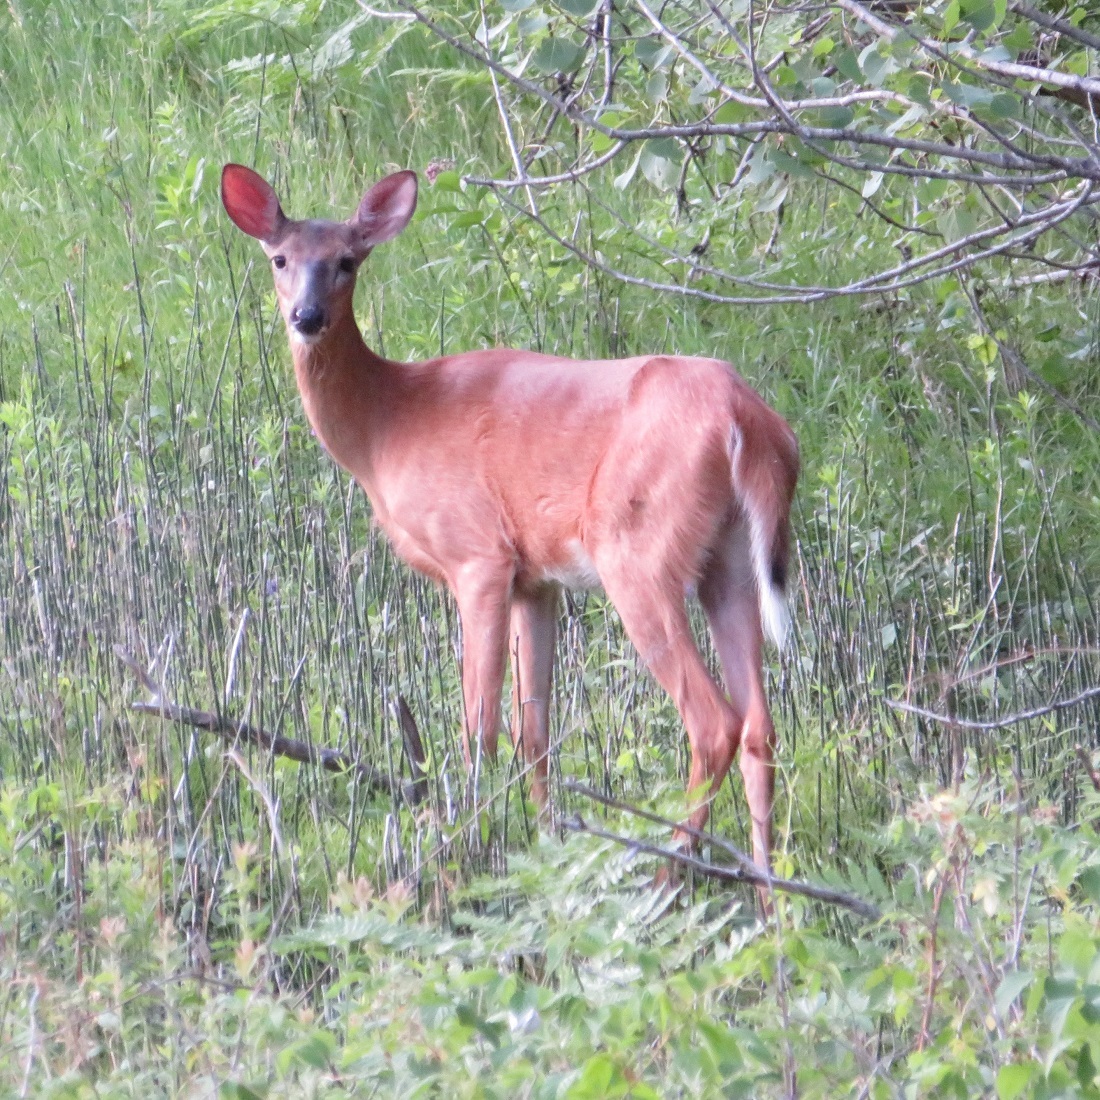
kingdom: Animalia
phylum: Chordata
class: Mammalia
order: Artiodactyla
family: Cervidae
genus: Odocoileus
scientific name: Odocoileus virginianus
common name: White-tailed deer
